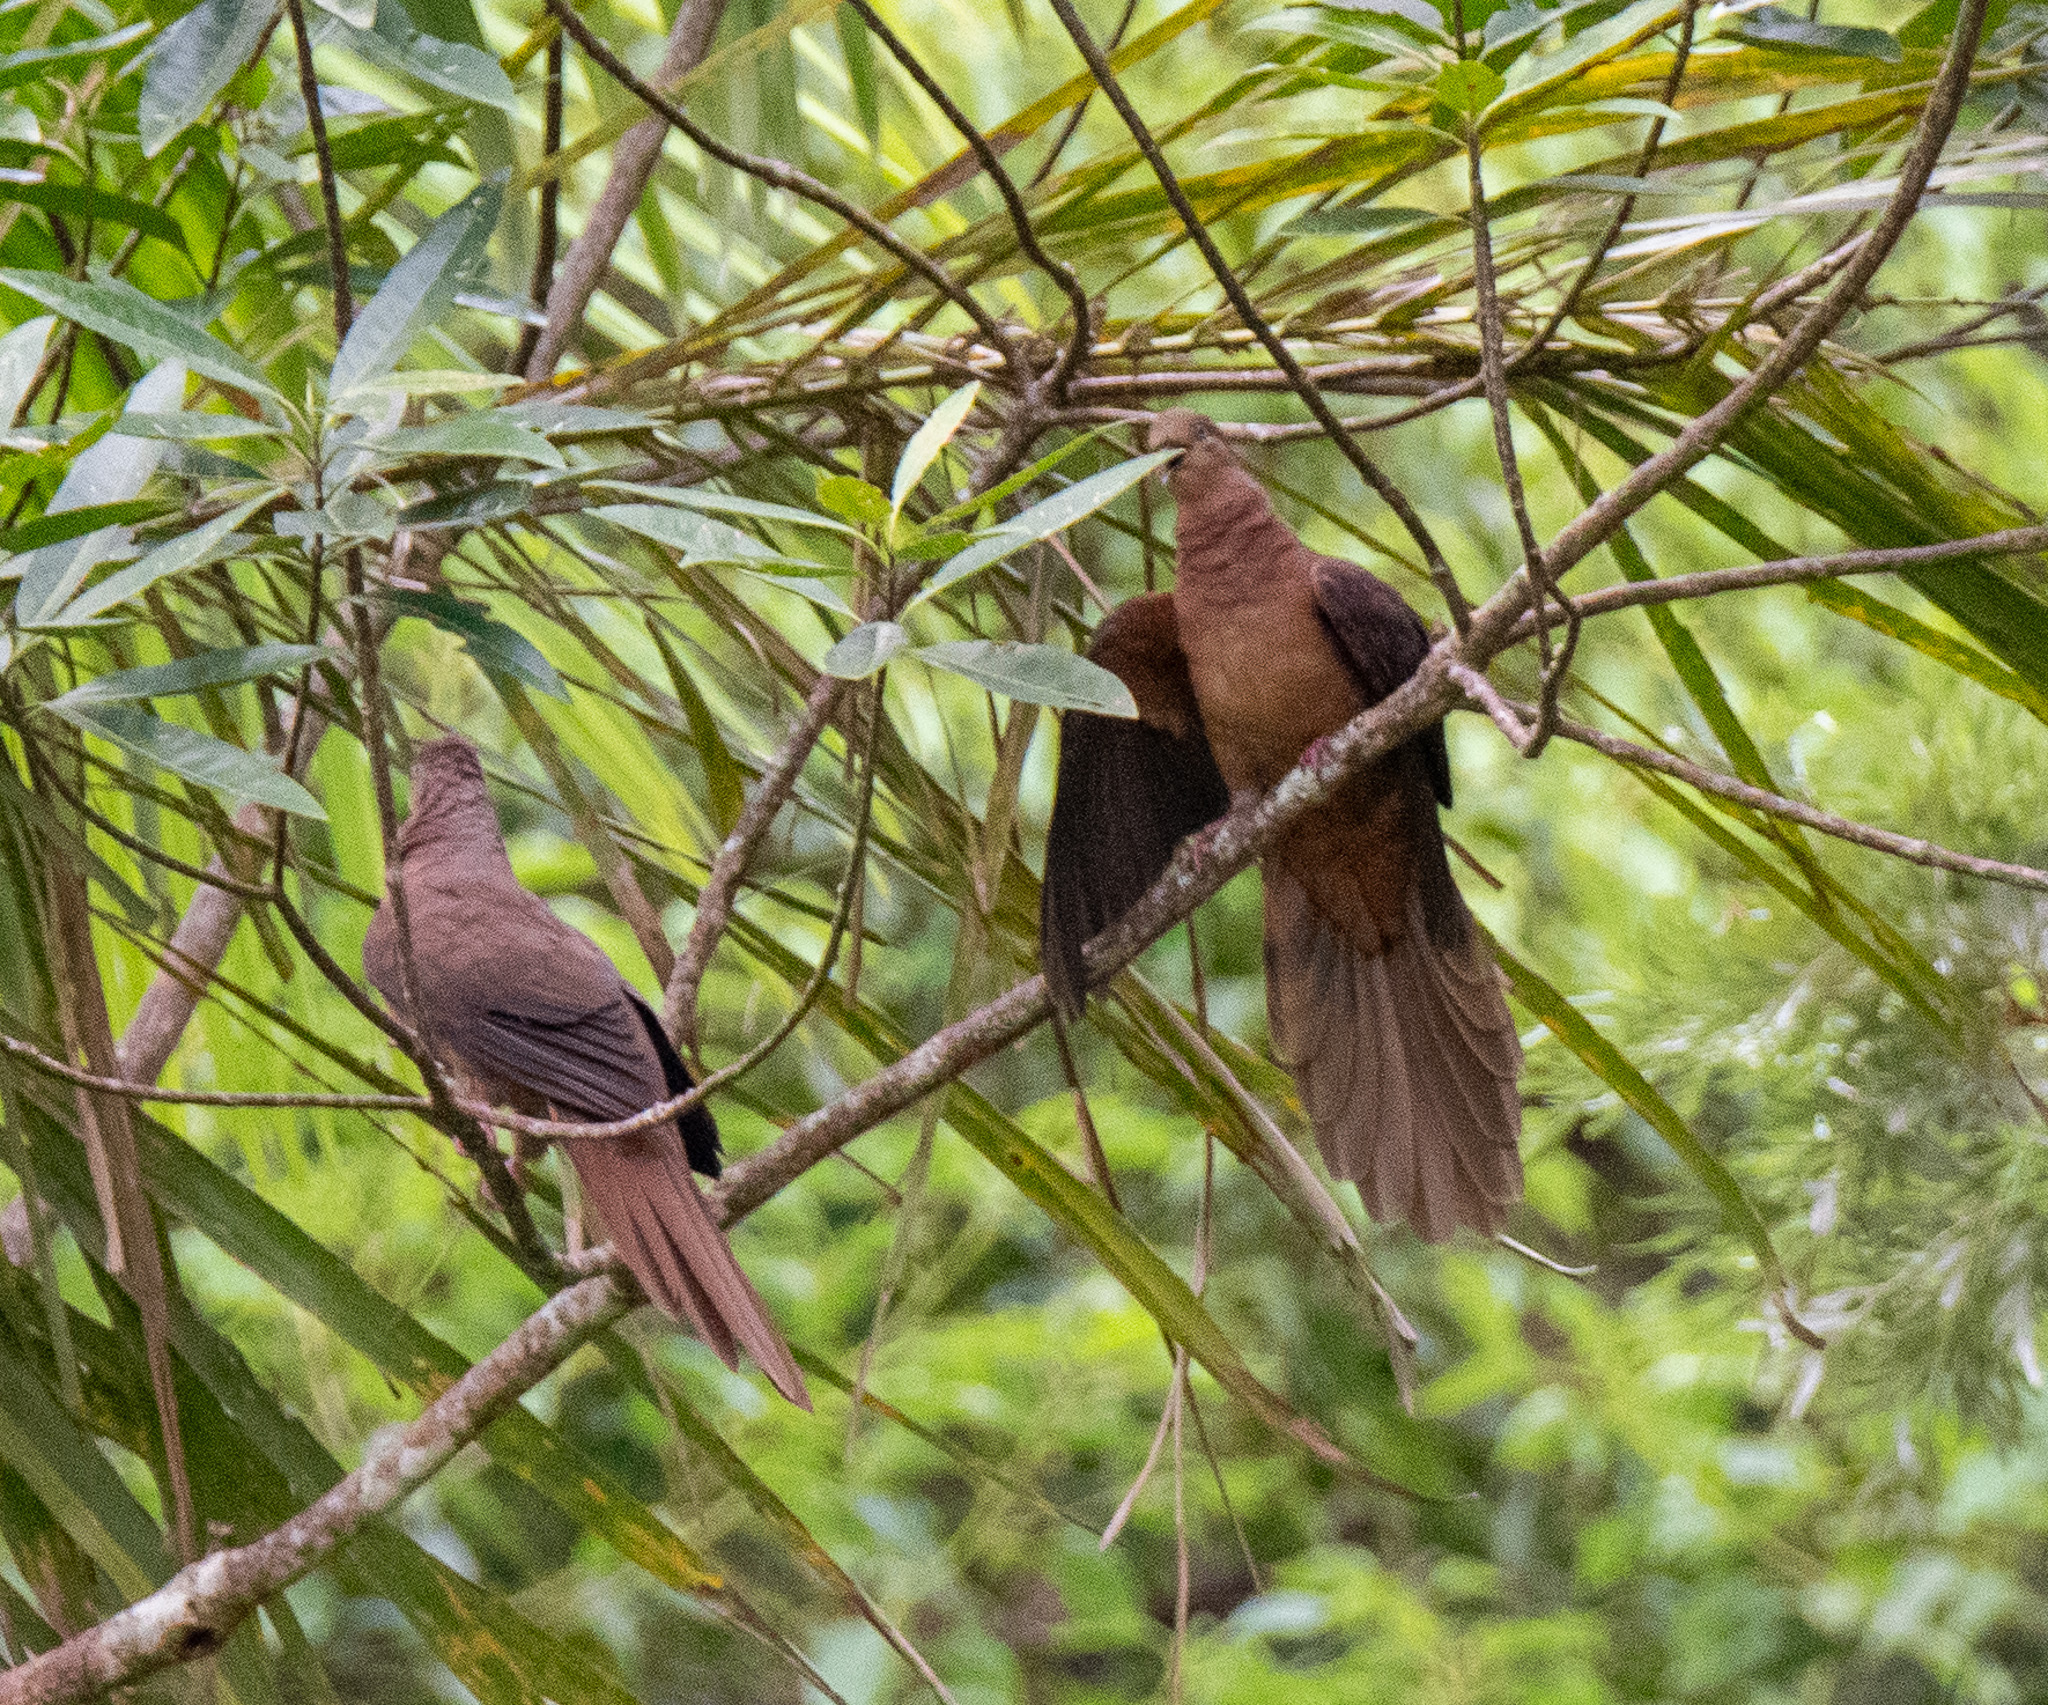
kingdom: Animalia
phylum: Chordata
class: Aves
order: Columbiformes
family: Columbidae
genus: Macropygia
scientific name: Macropygia phasianella
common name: Brown cuckoo-dove
